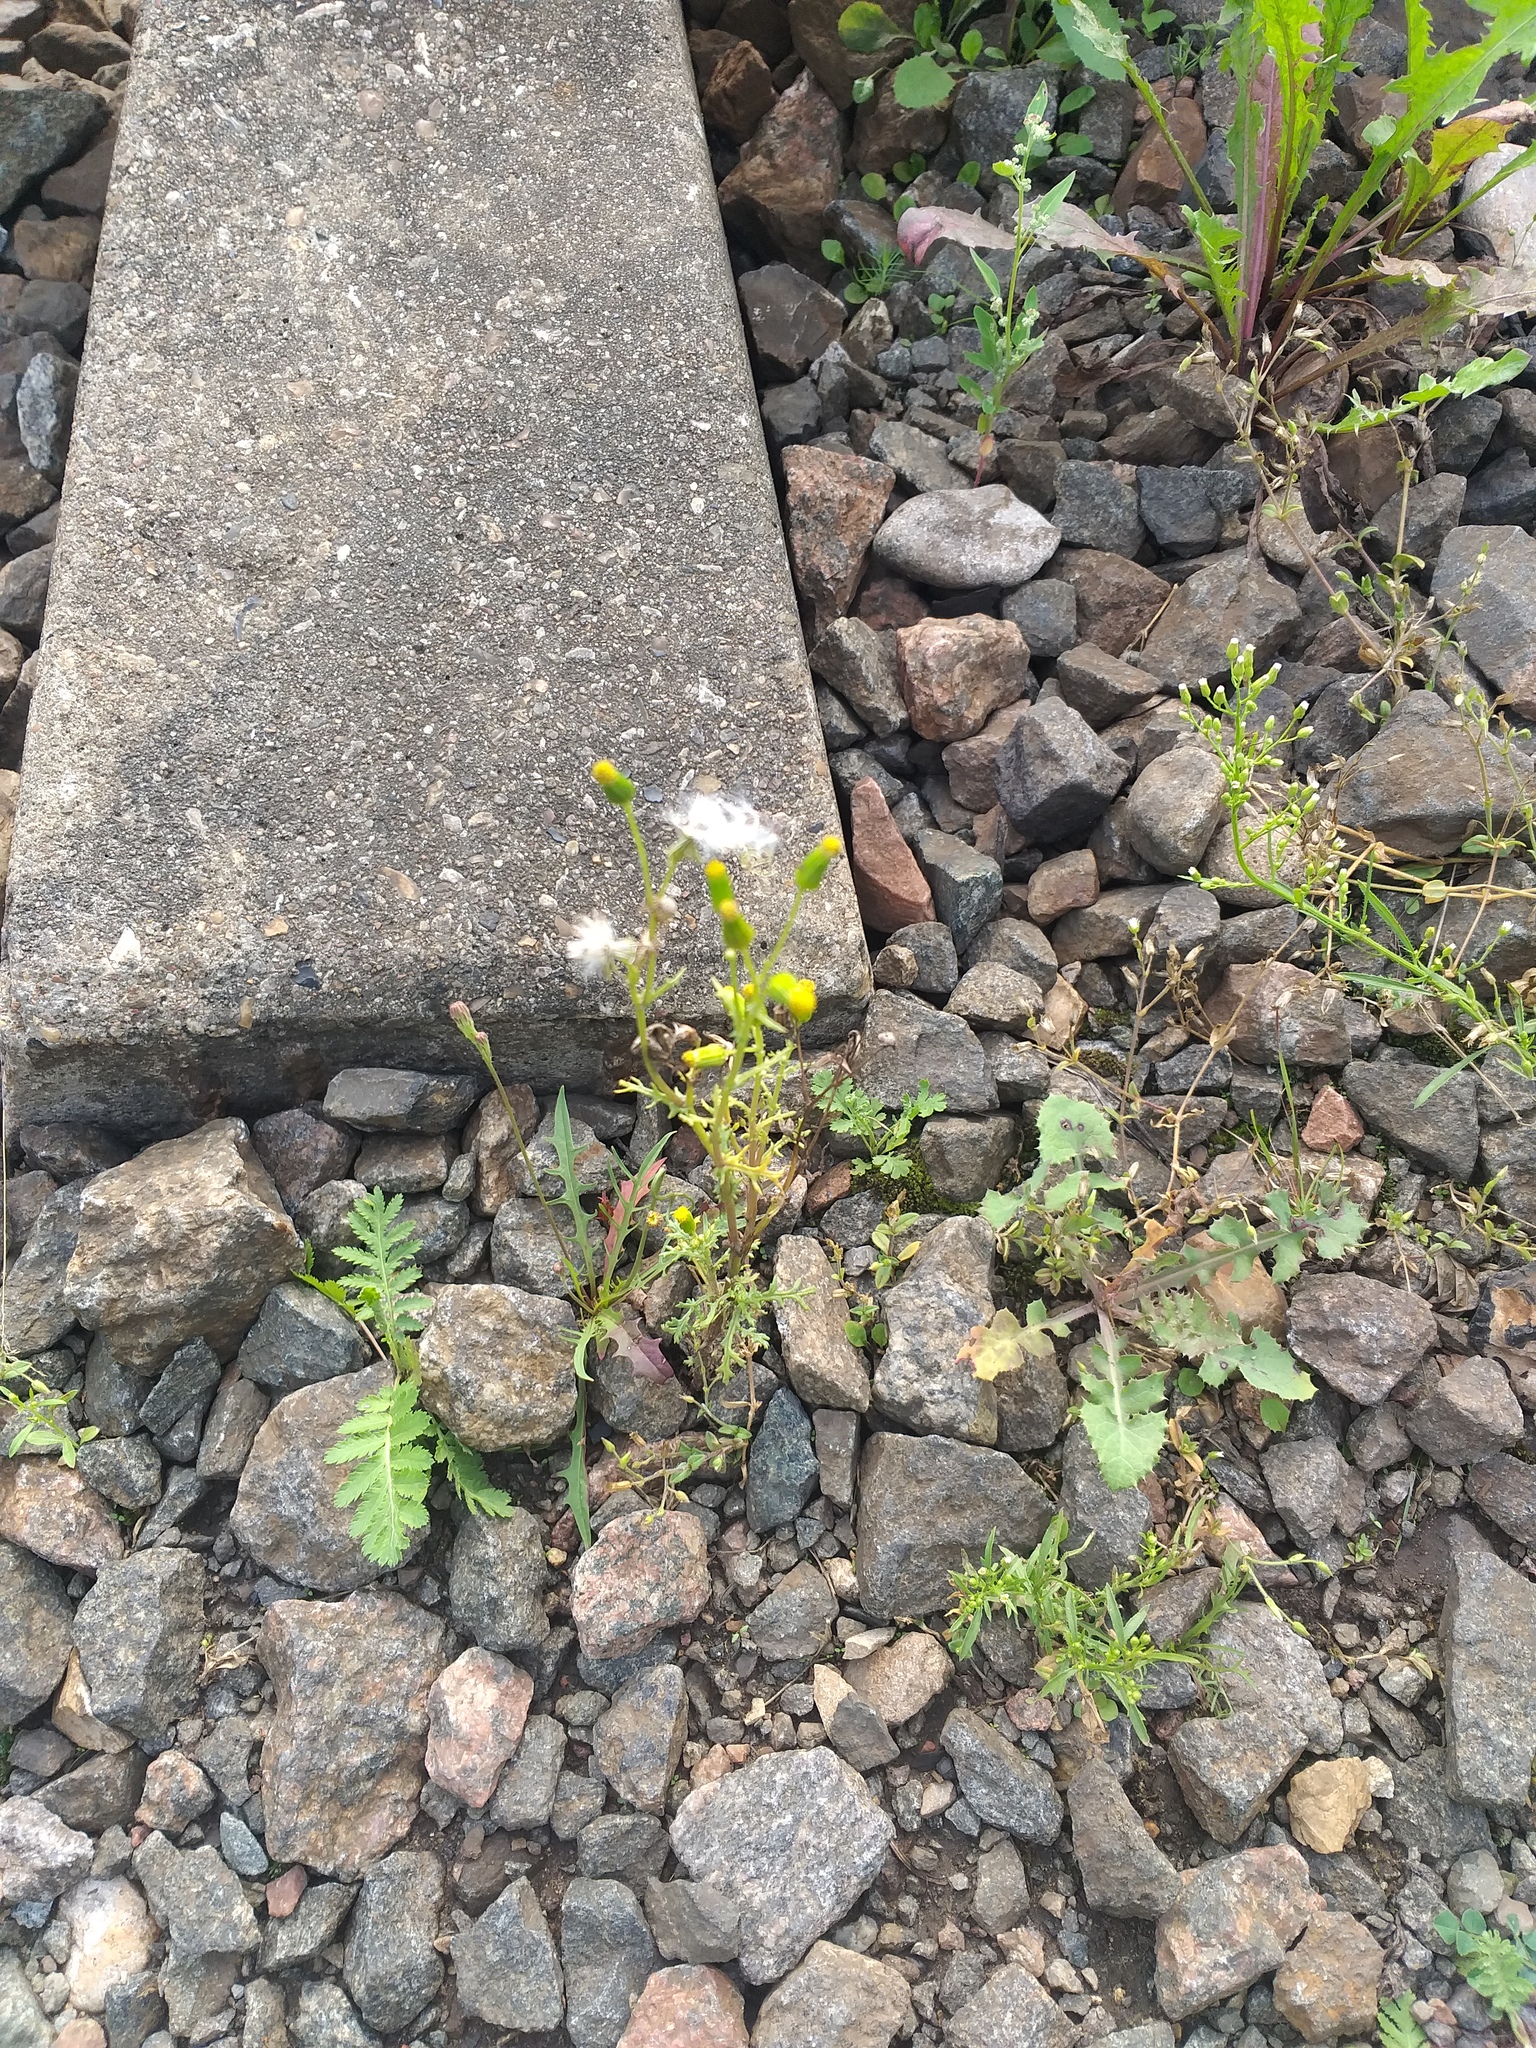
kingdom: Plantae
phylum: Tracheophyta
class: Magnoliopsida
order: Asterales
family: Asteraceae
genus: Senecio
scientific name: Senecio vulgaris
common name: Old-man-in-the-spring
